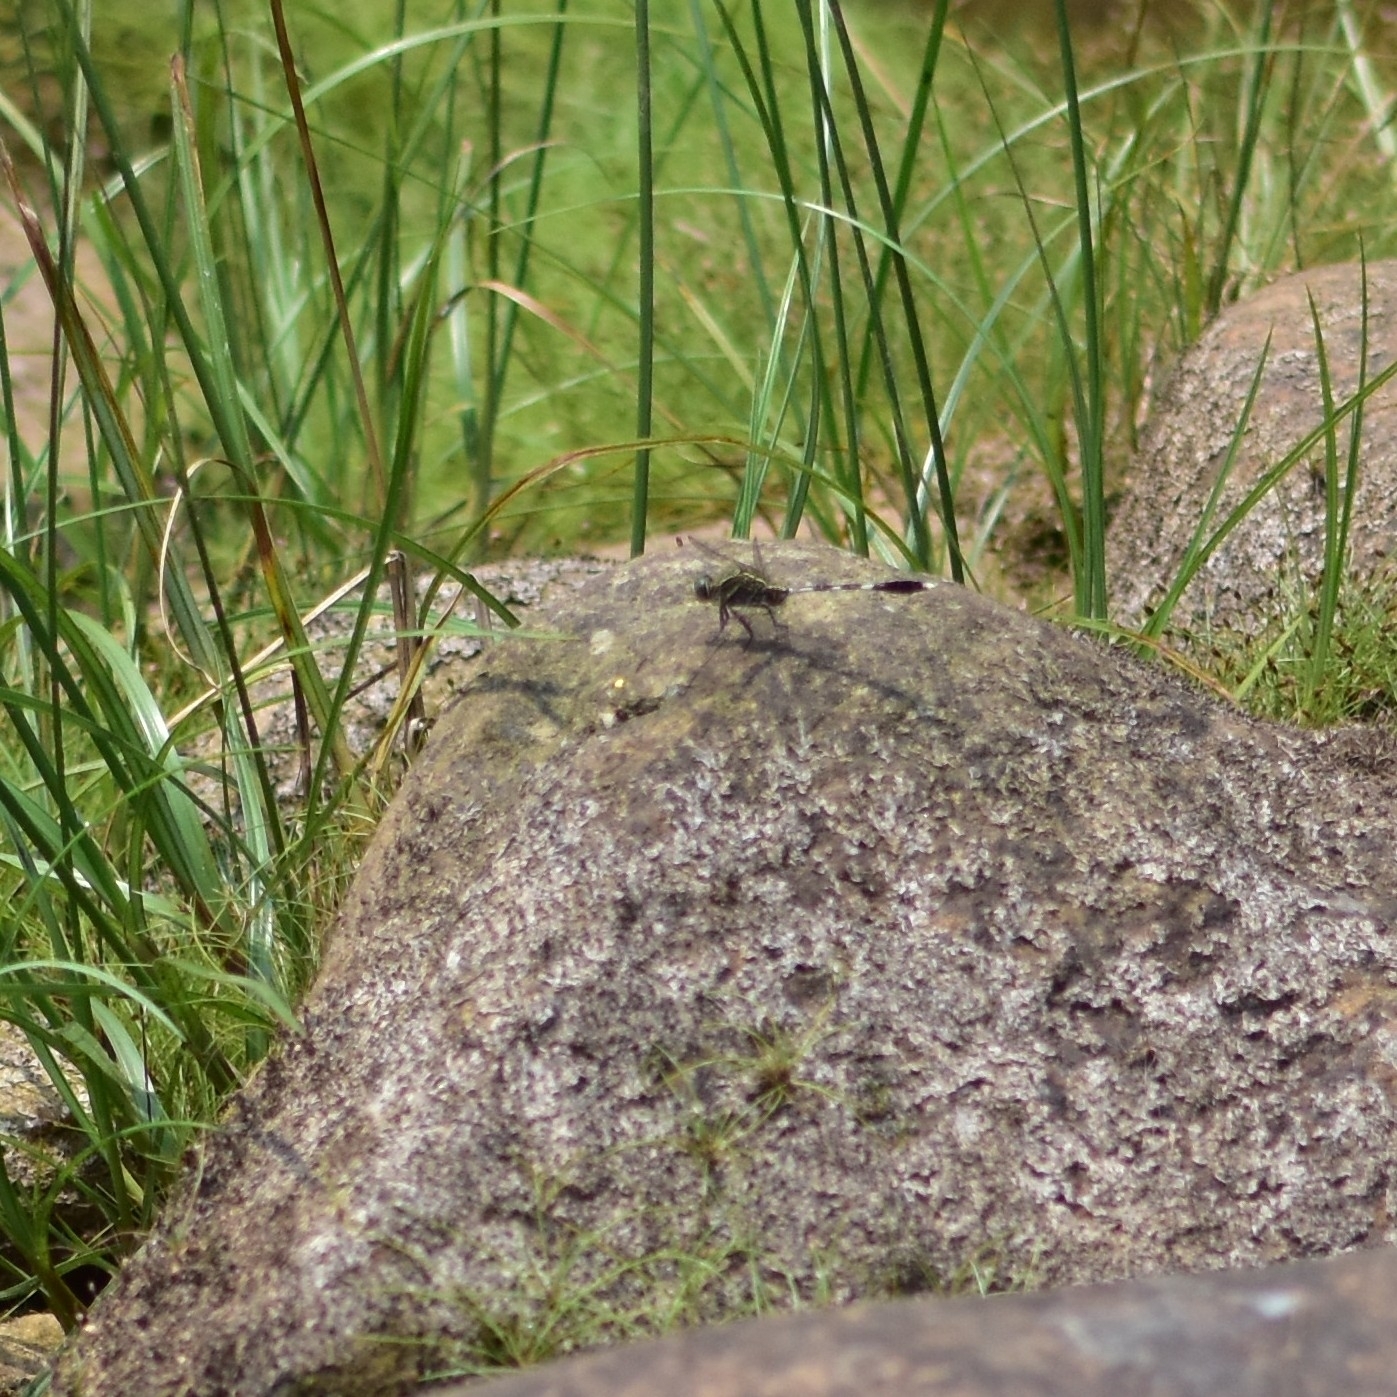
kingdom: Animalia
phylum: Arthropoda
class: Insecta
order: Odonata
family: Libellulidae
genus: Orthetrum
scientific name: Orthetrum sabina
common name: Slender skimmer
